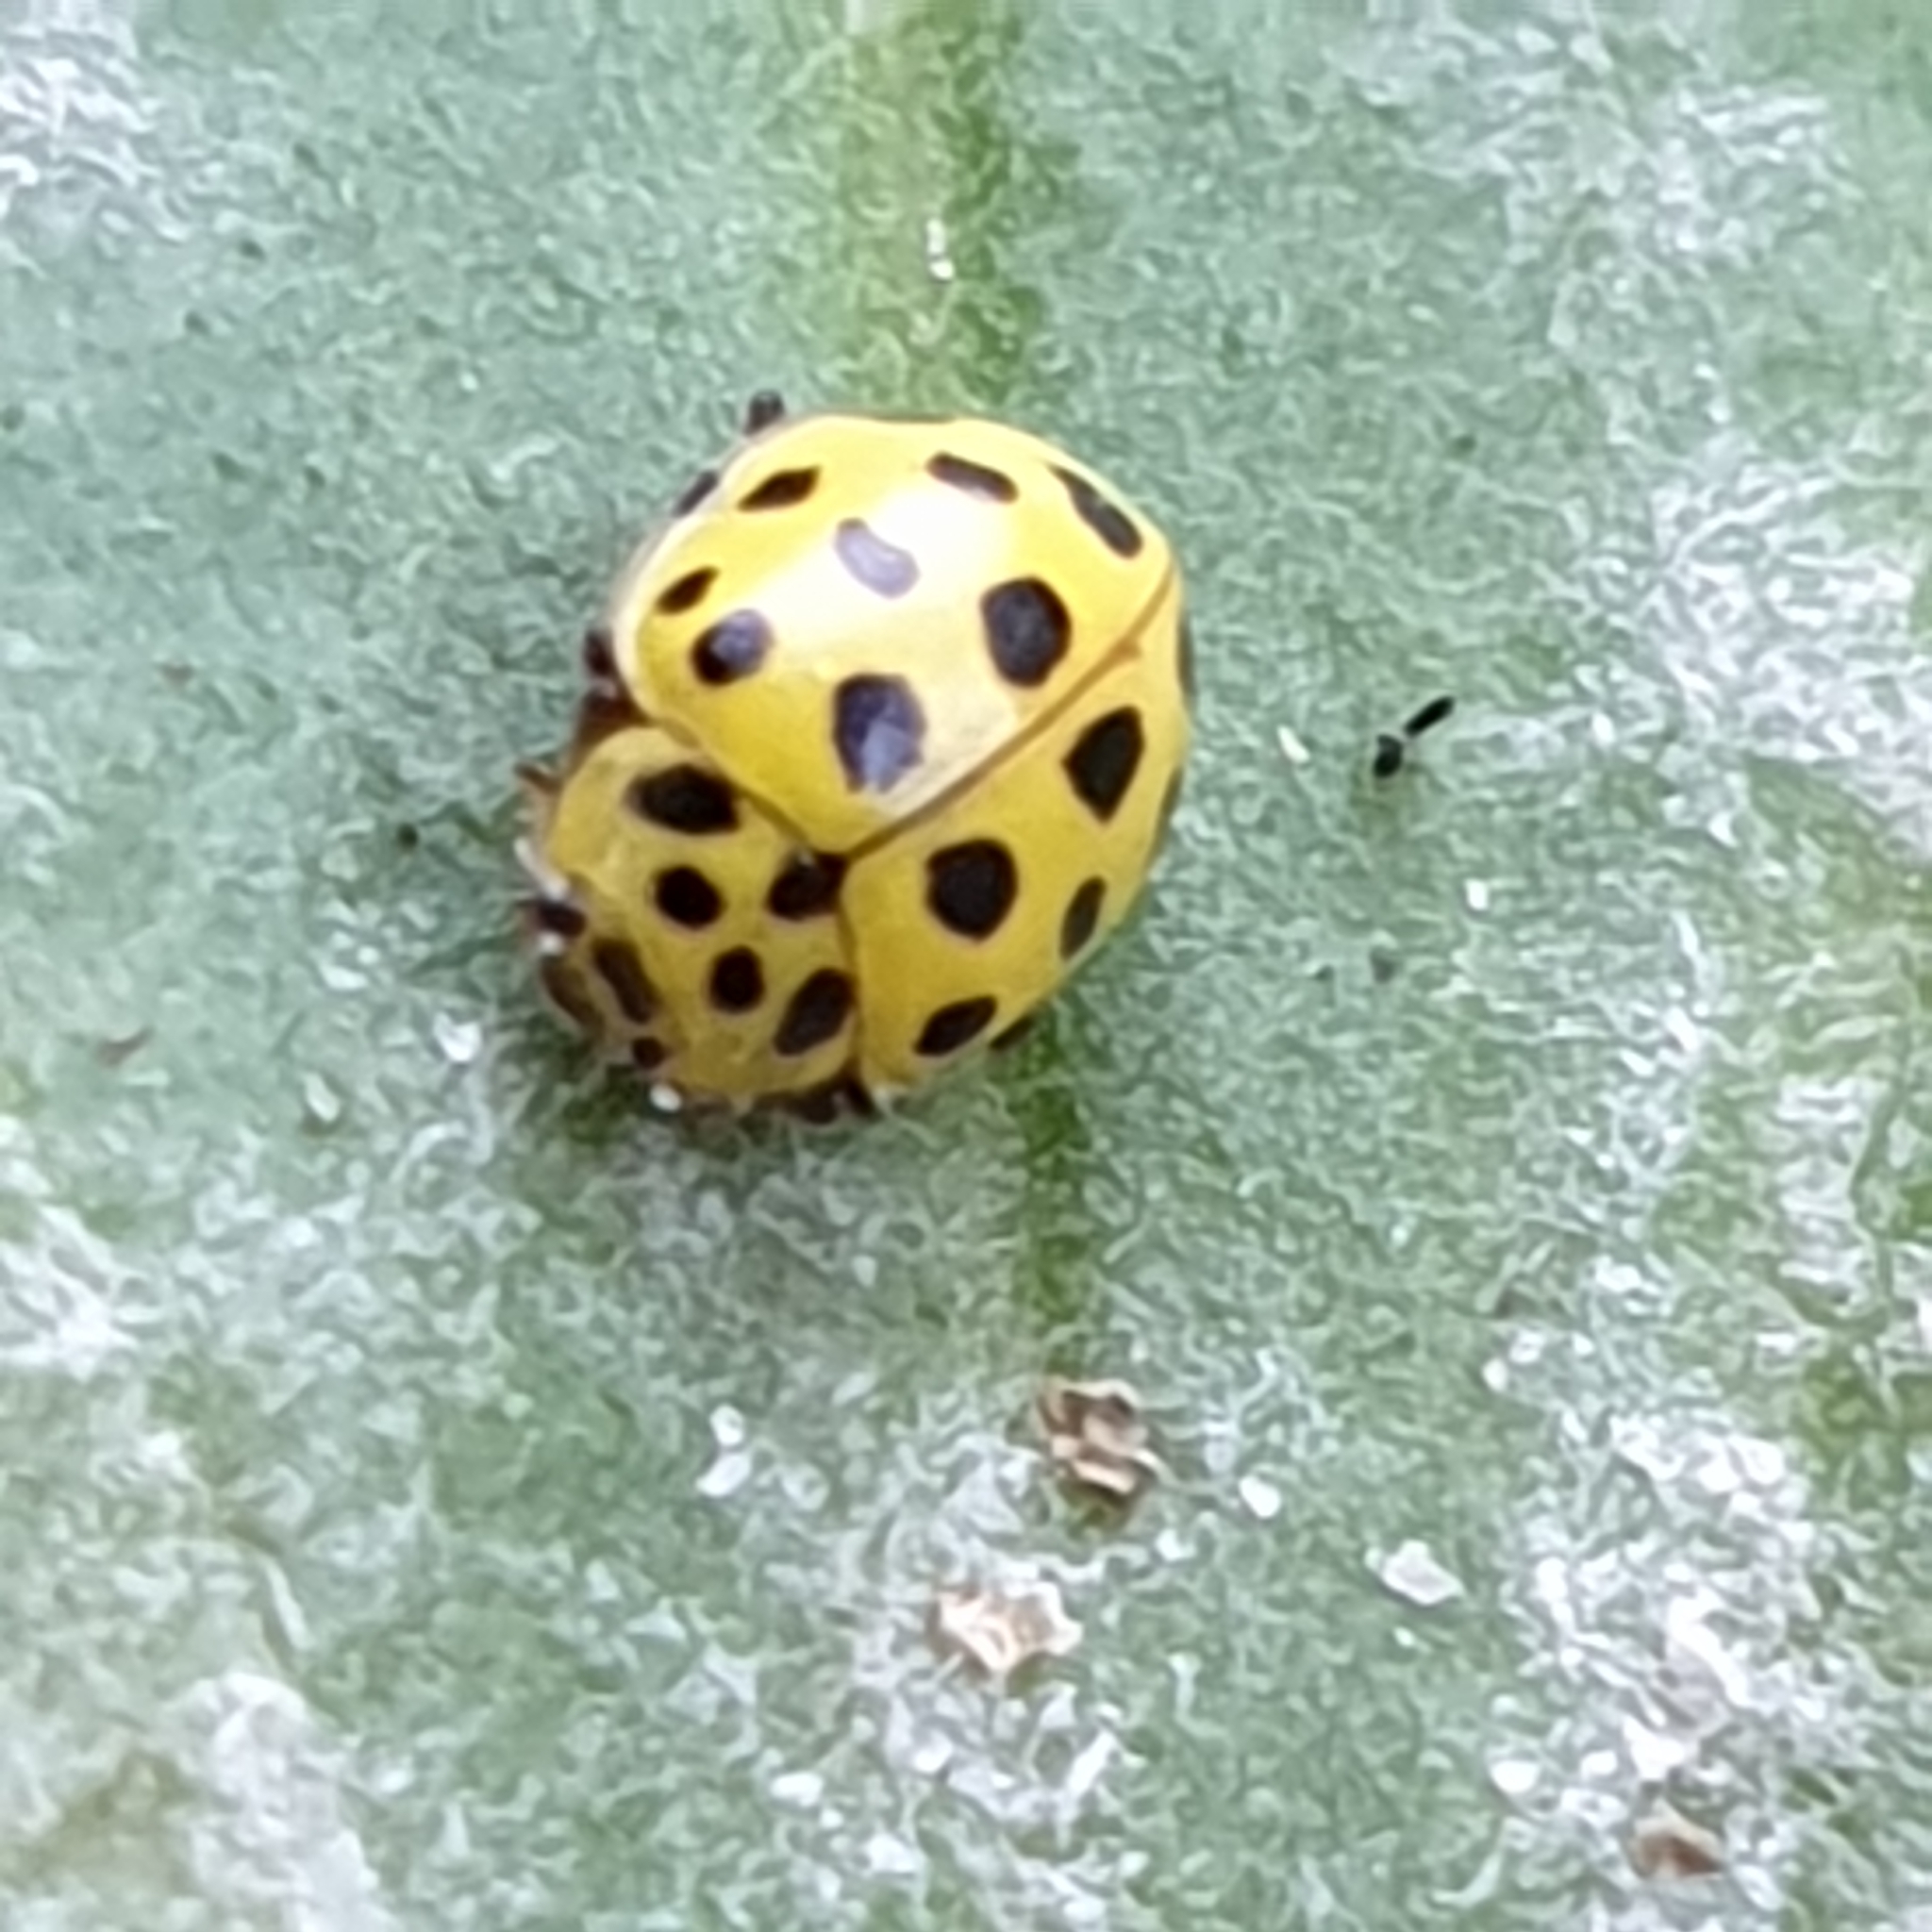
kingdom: Animalia
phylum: Arthropoda
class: Insecta
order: Coleoptera
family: Coccinellidae
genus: Psyllobora
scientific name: Psyllobora vigintiduopunctata
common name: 22-spot ladybird
